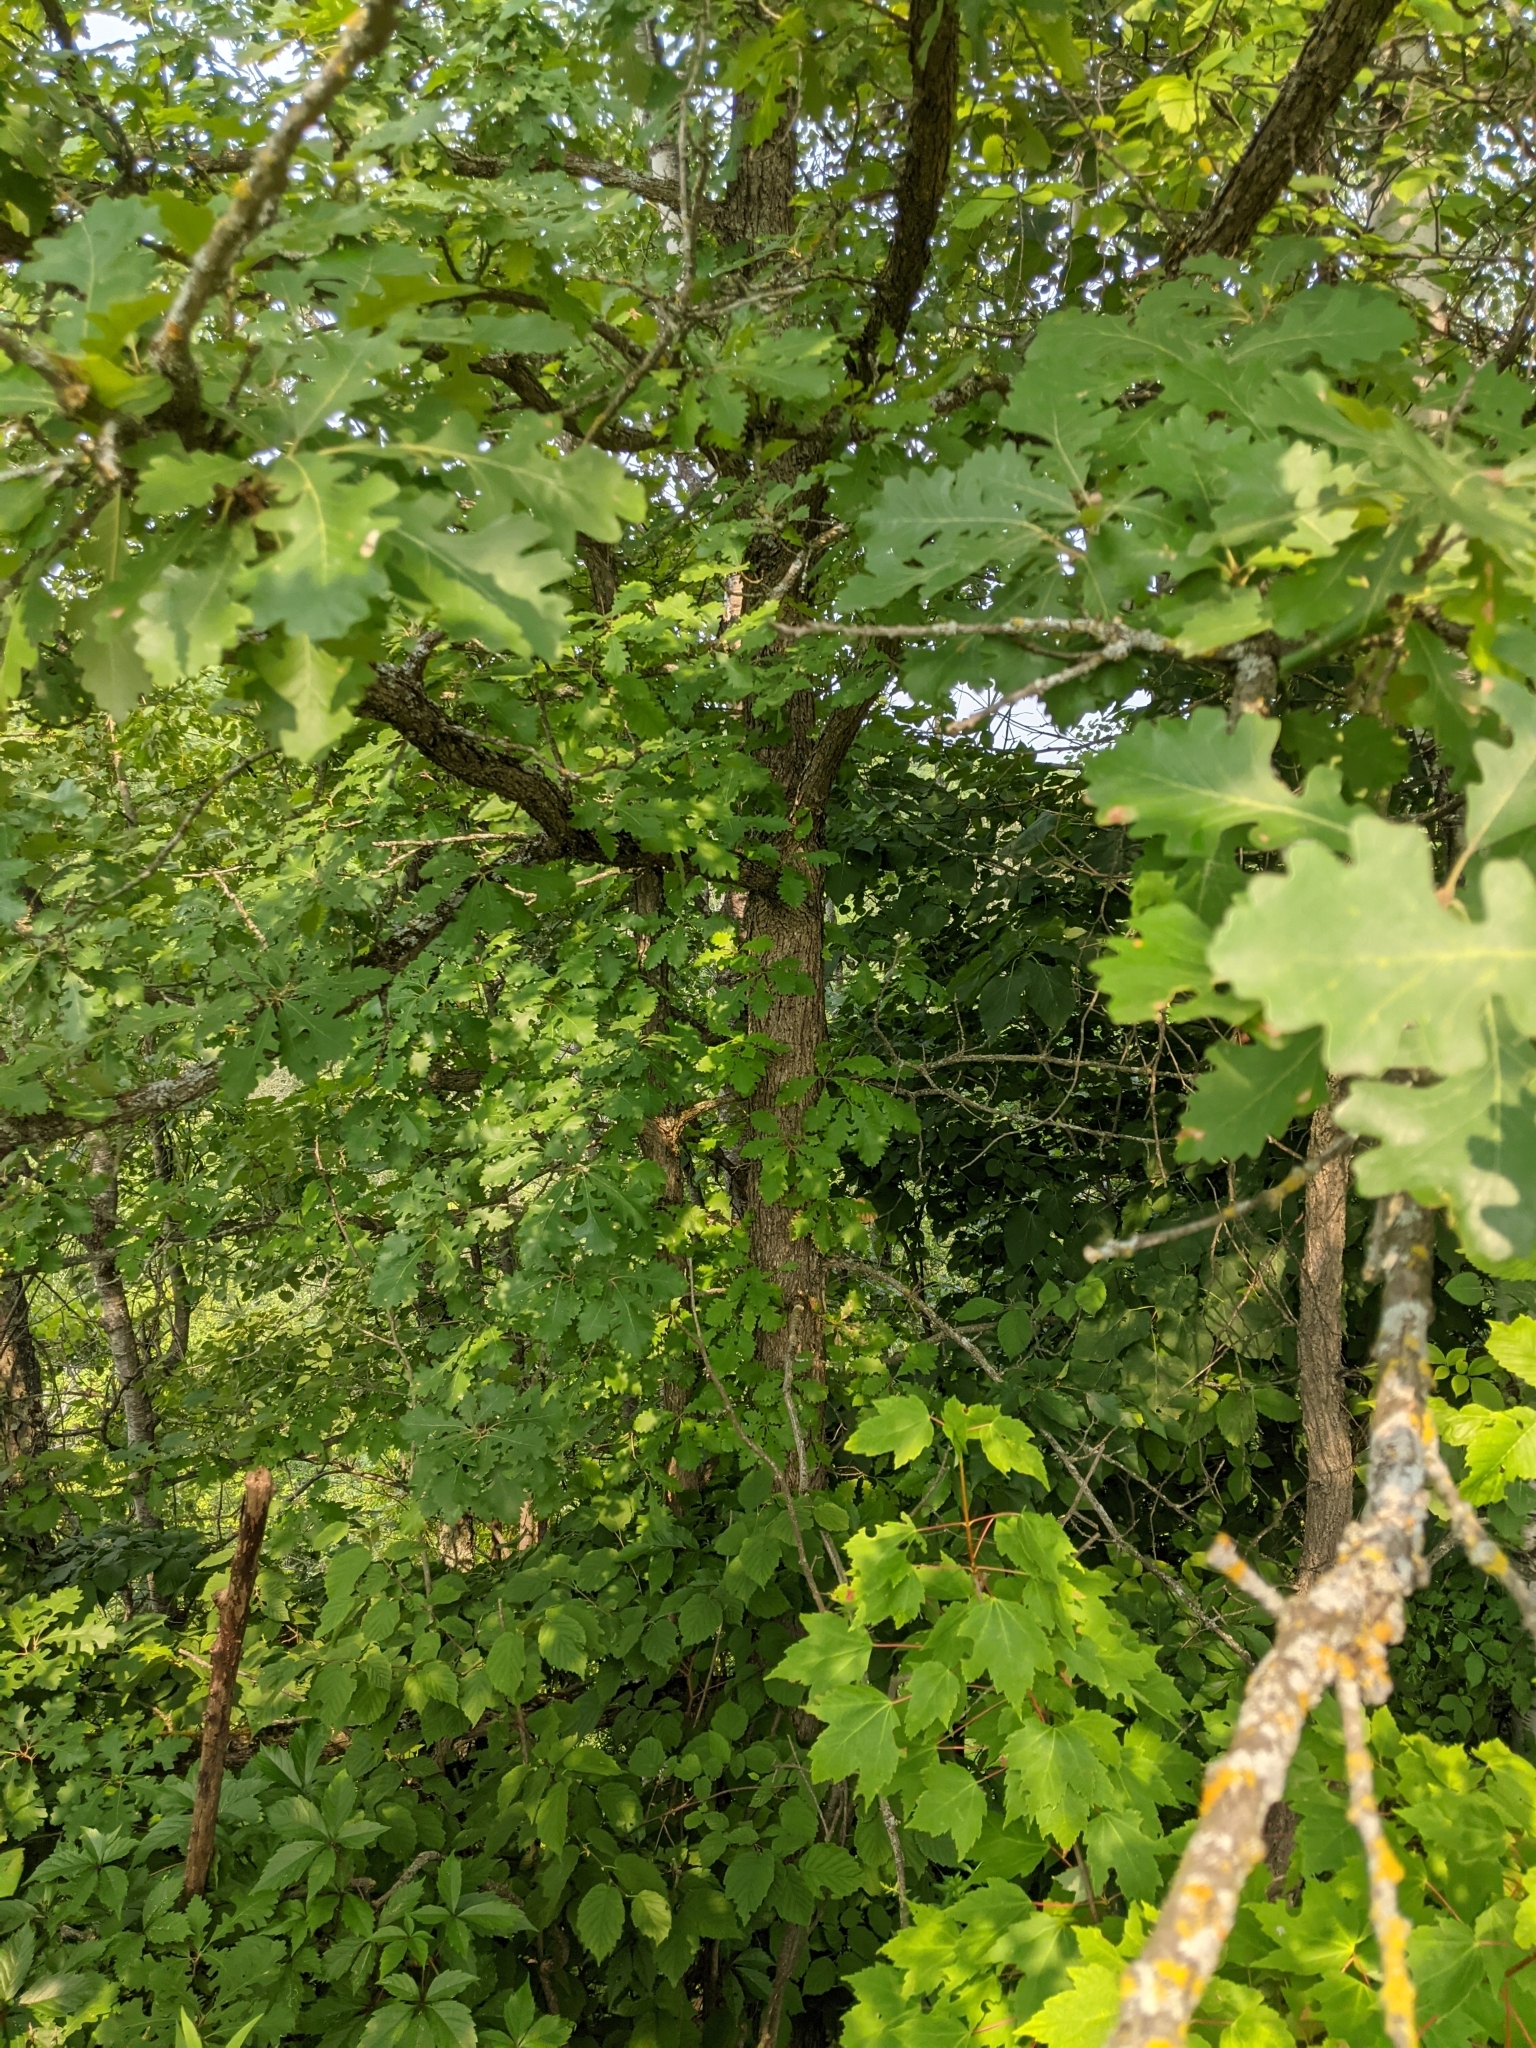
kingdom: Plantae
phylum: Tracheophyta
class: Magnoliopsida
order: Fagales
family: Fagaceae
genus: Quercus
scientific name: Quercus macrocarpa
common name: Bur oak
